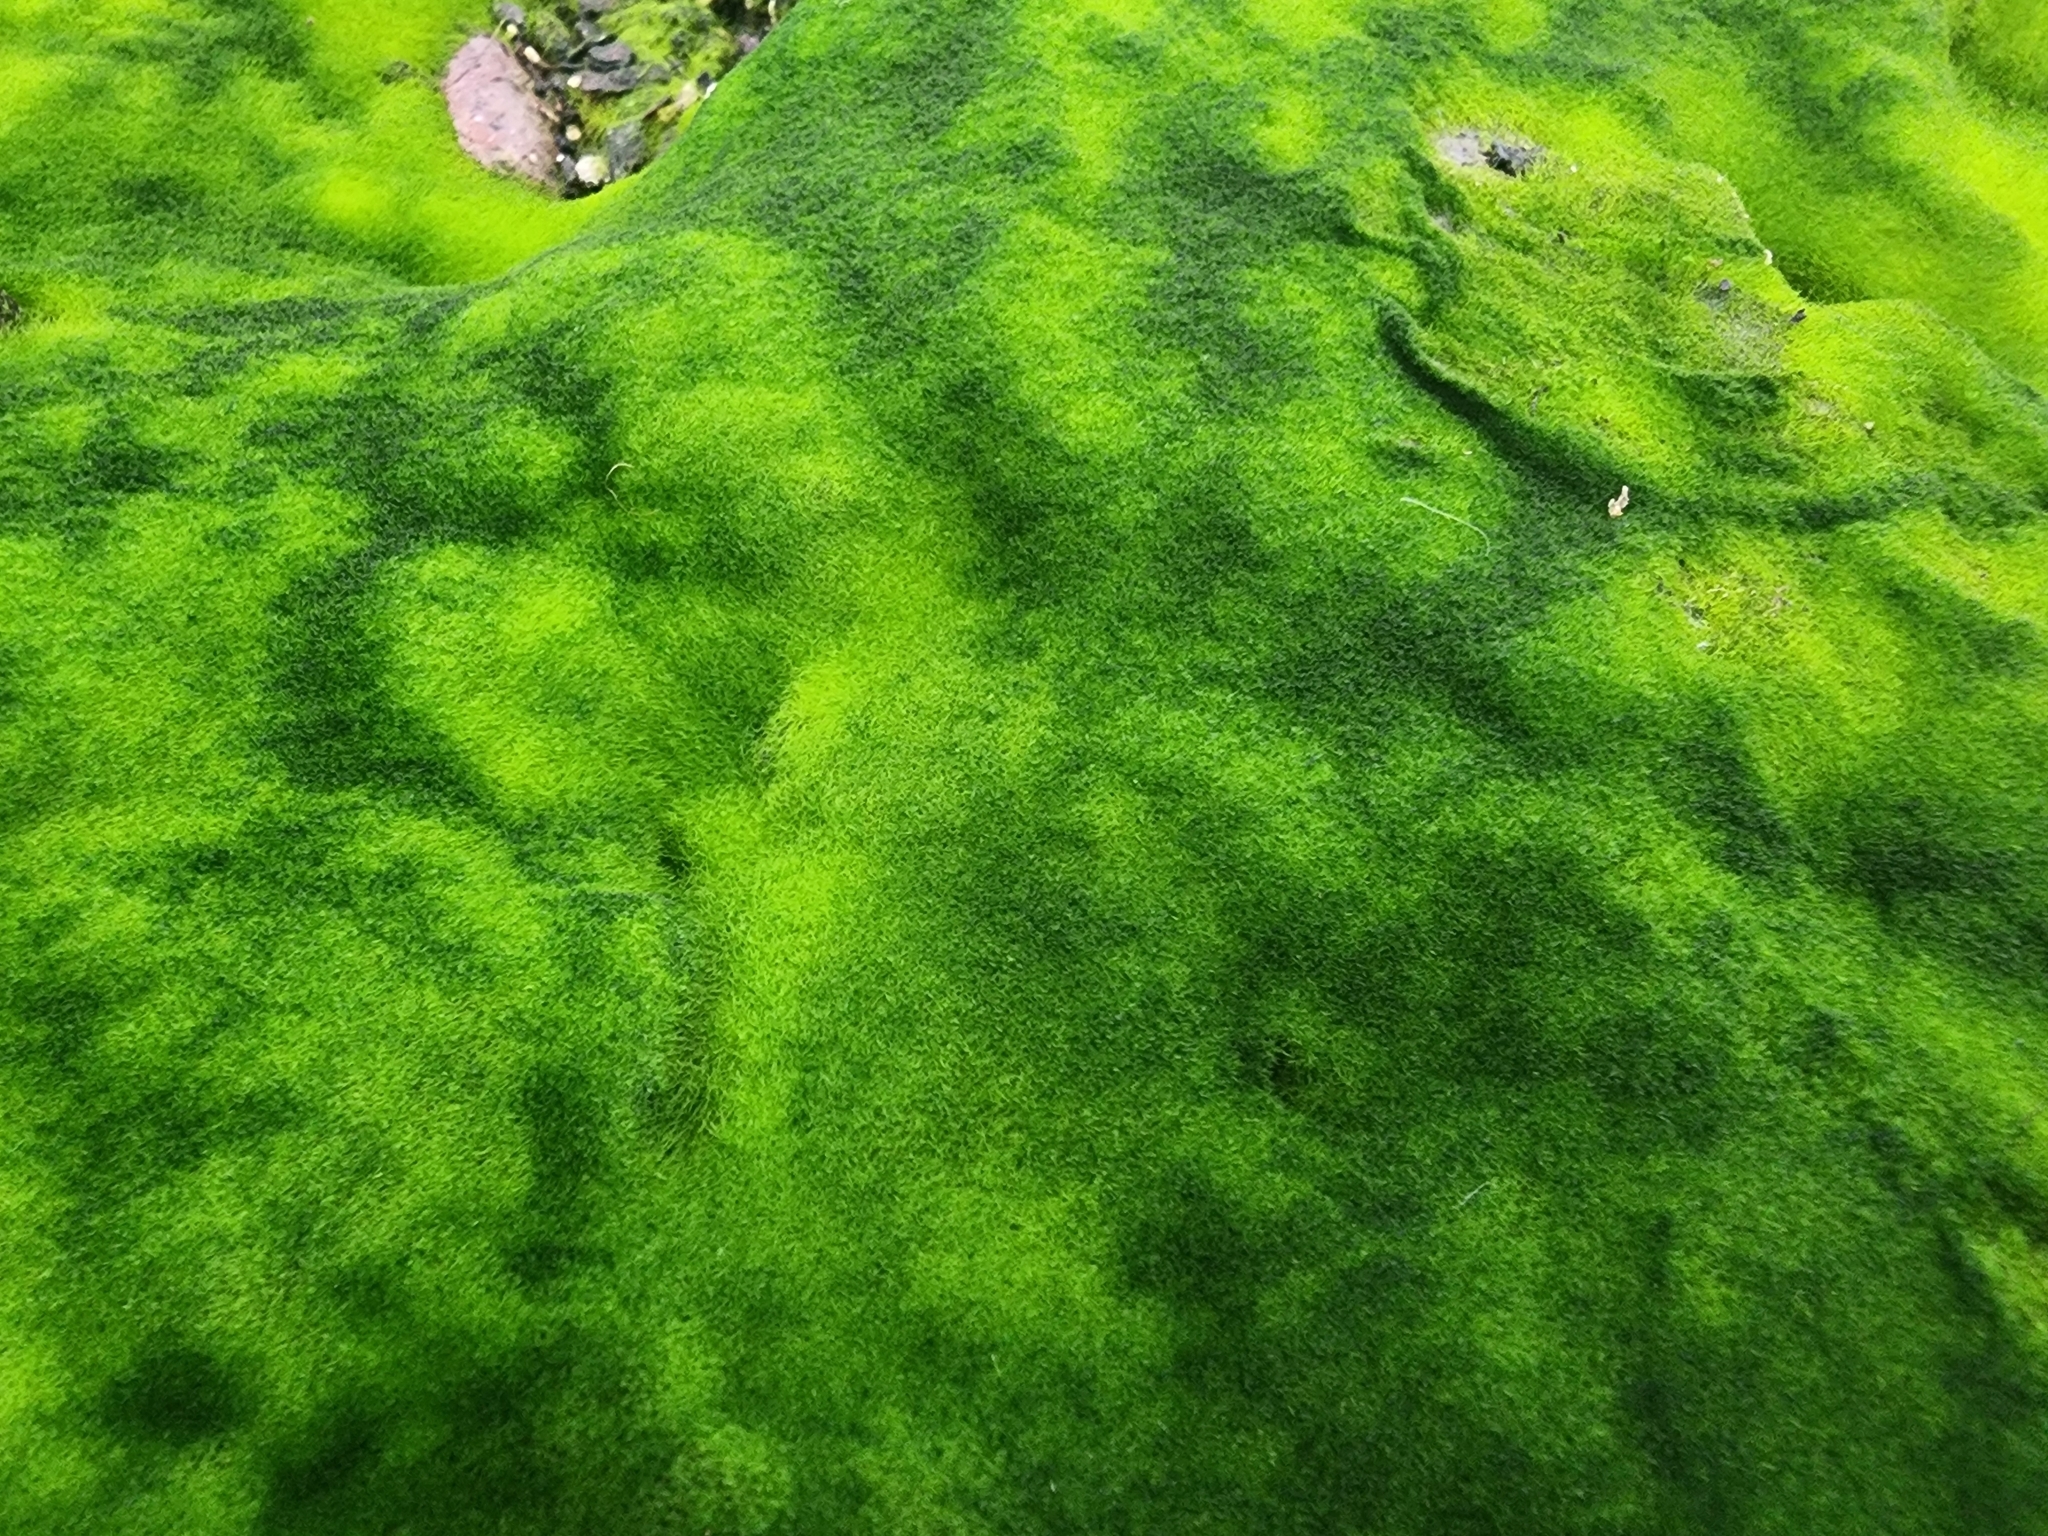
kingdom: Chromista
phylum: Ochrophyta
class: Xanthophyceae
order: Vaucheriales
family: Vaucheriaceae
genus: Vaucheria
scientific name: Vaucheria
